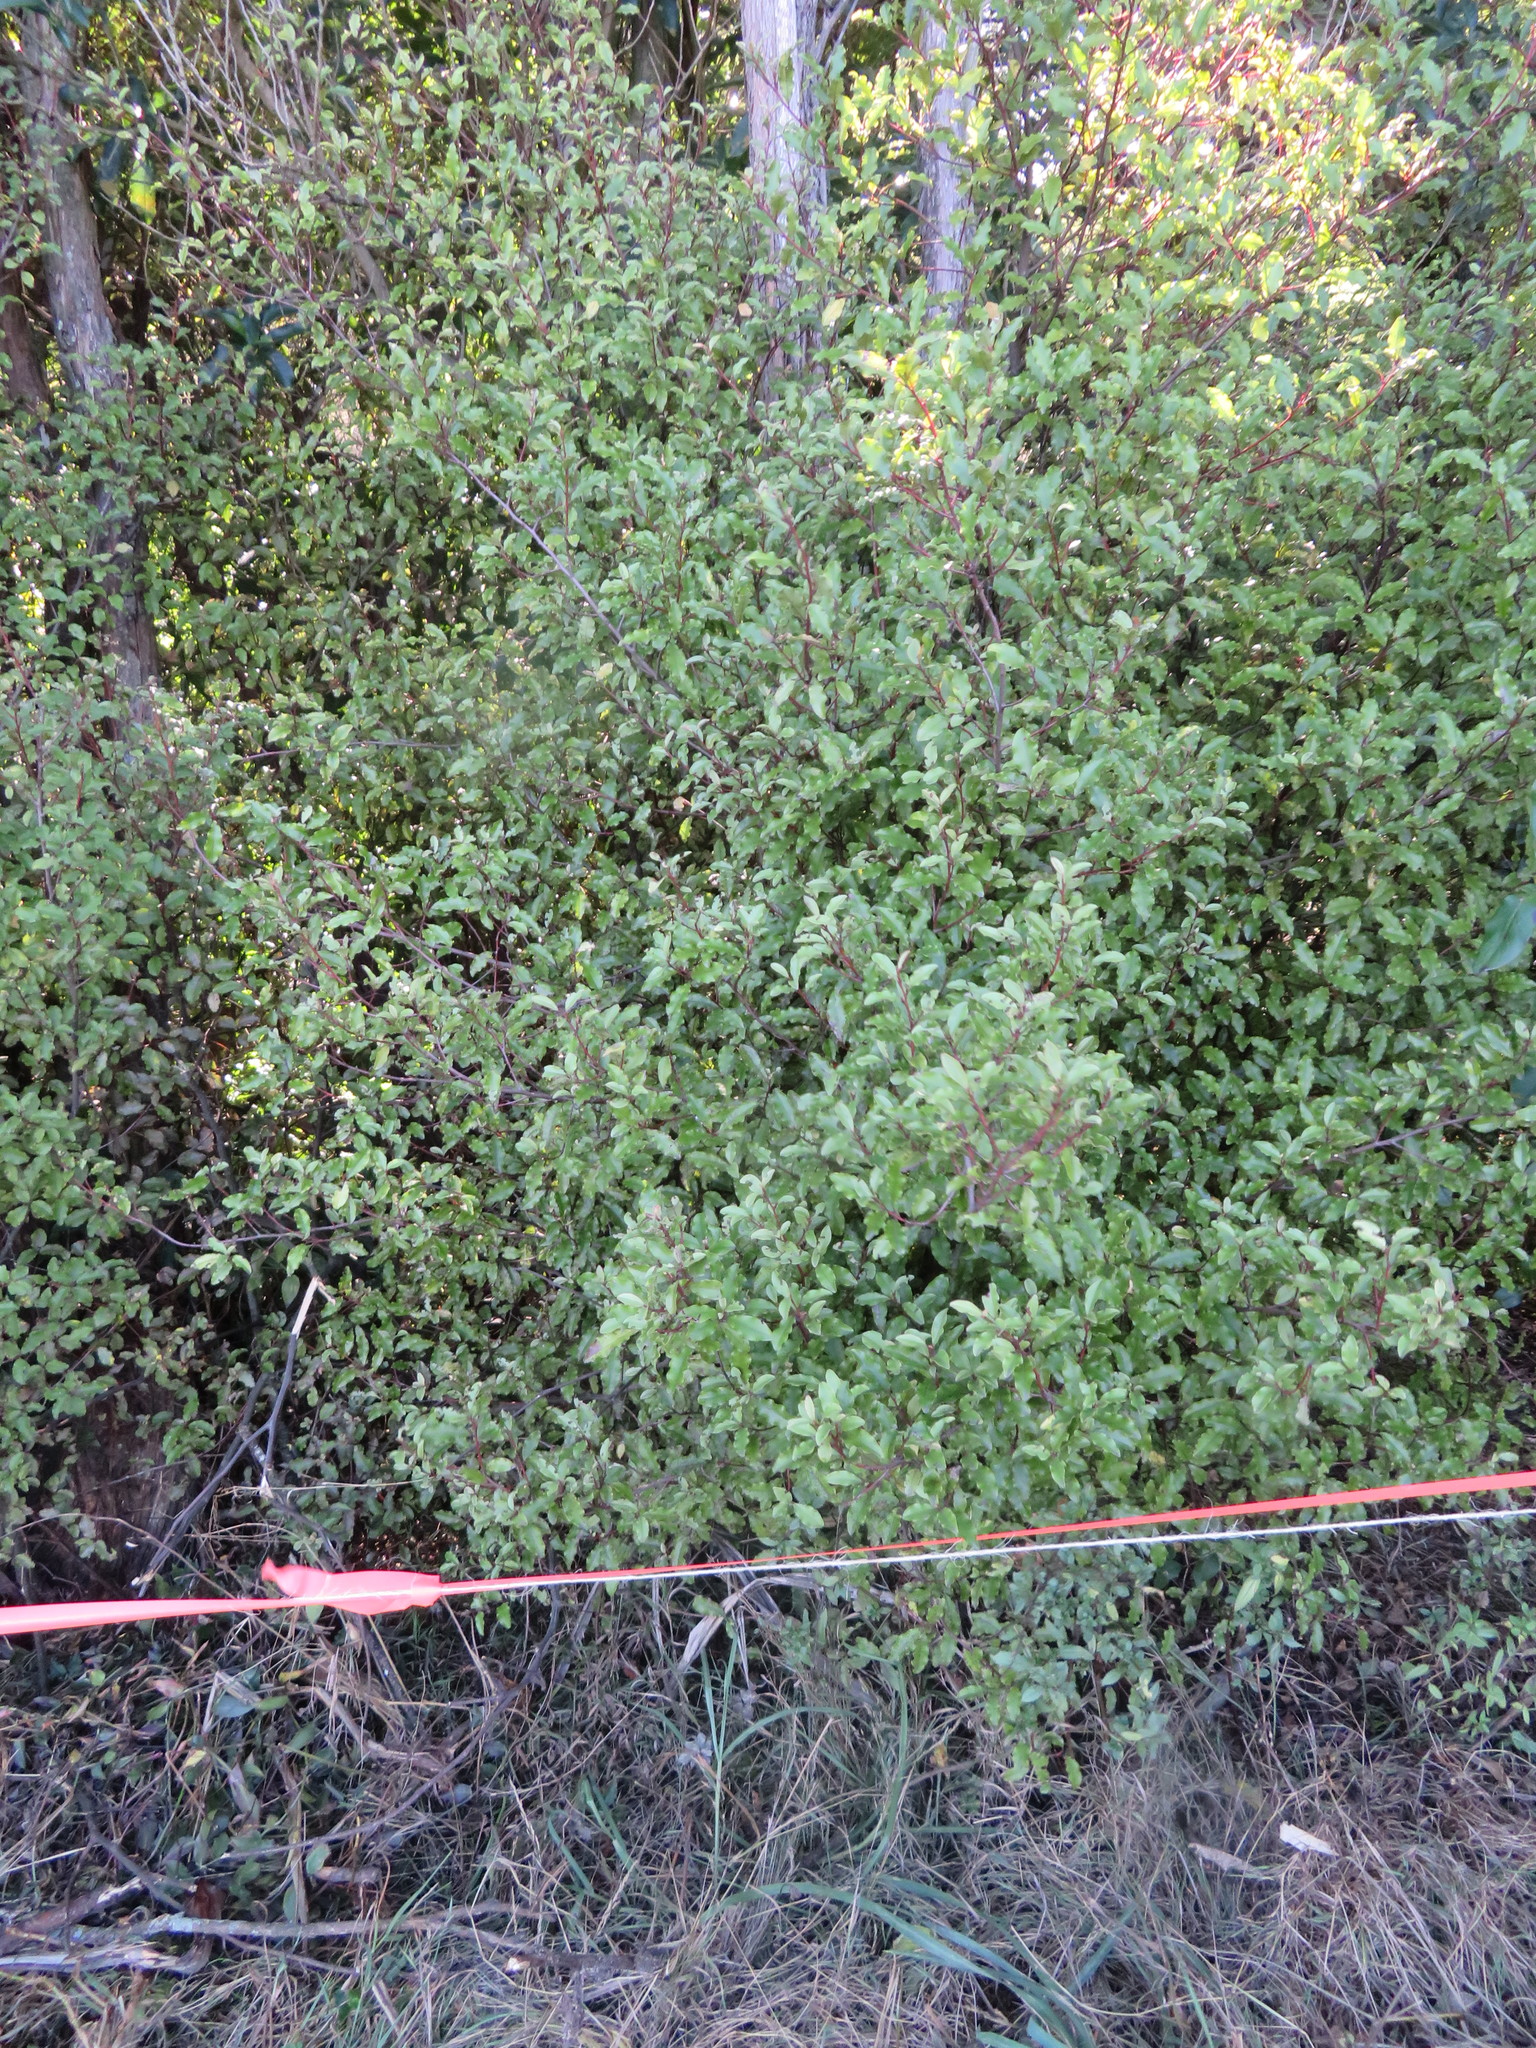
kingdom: Plantae
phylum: Tracheophyta
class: Magnoliopsida
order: Ericales
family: Primulaceae
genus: Myrsine
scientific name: Myrsine australis
